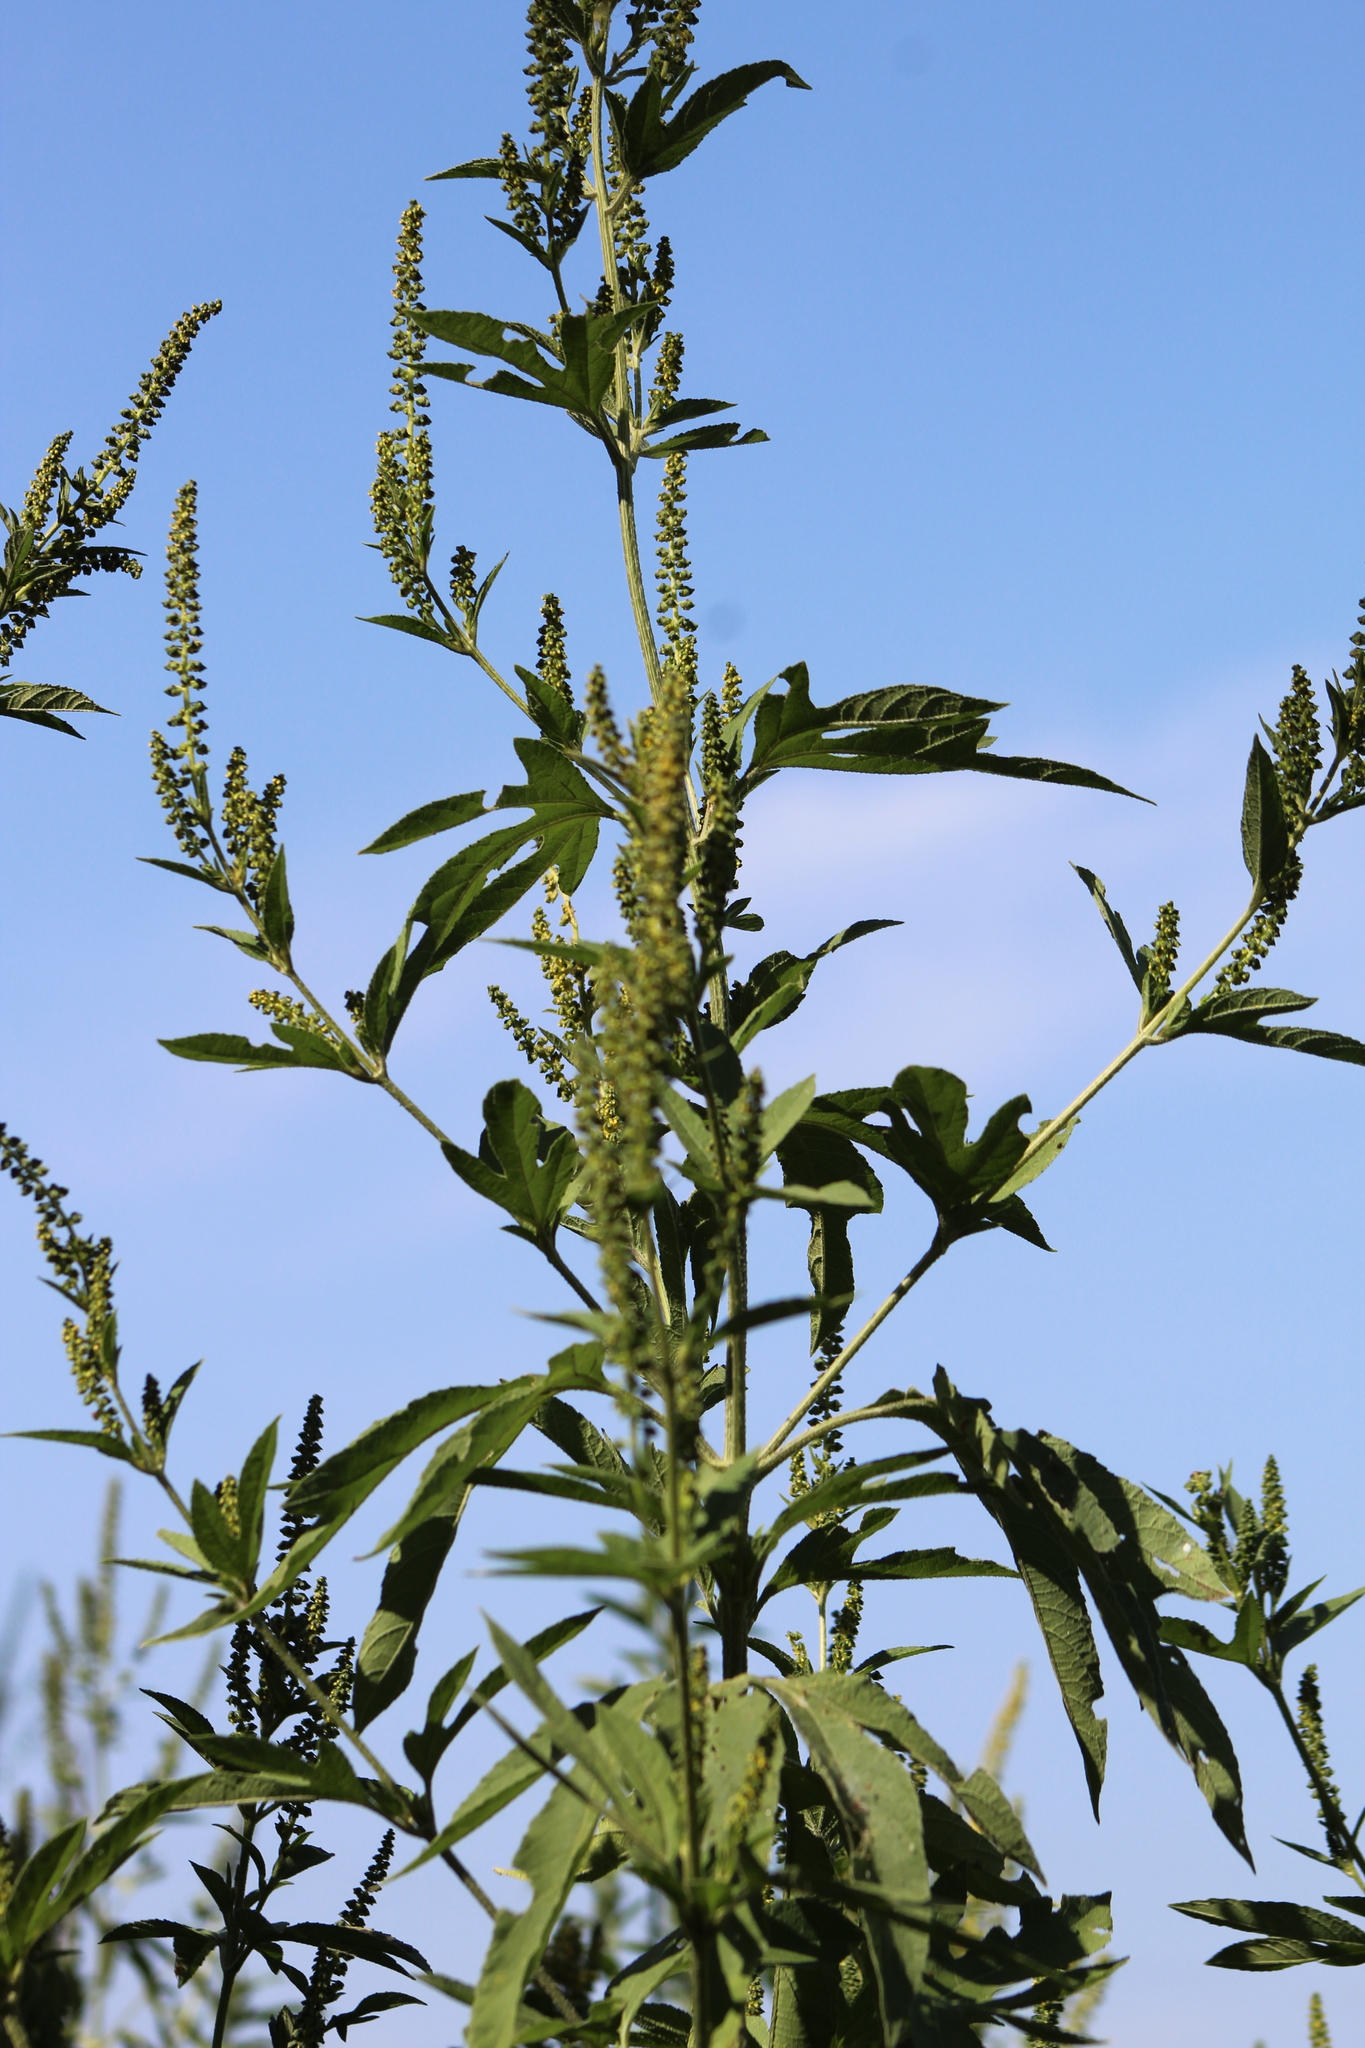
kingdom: Plantae
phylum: Tracheophyta
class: Magnoliopsida
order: Asterales
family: Asteraceae
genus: Ambrosia
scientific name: Ambrosia trifida
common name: Giant ragweed
